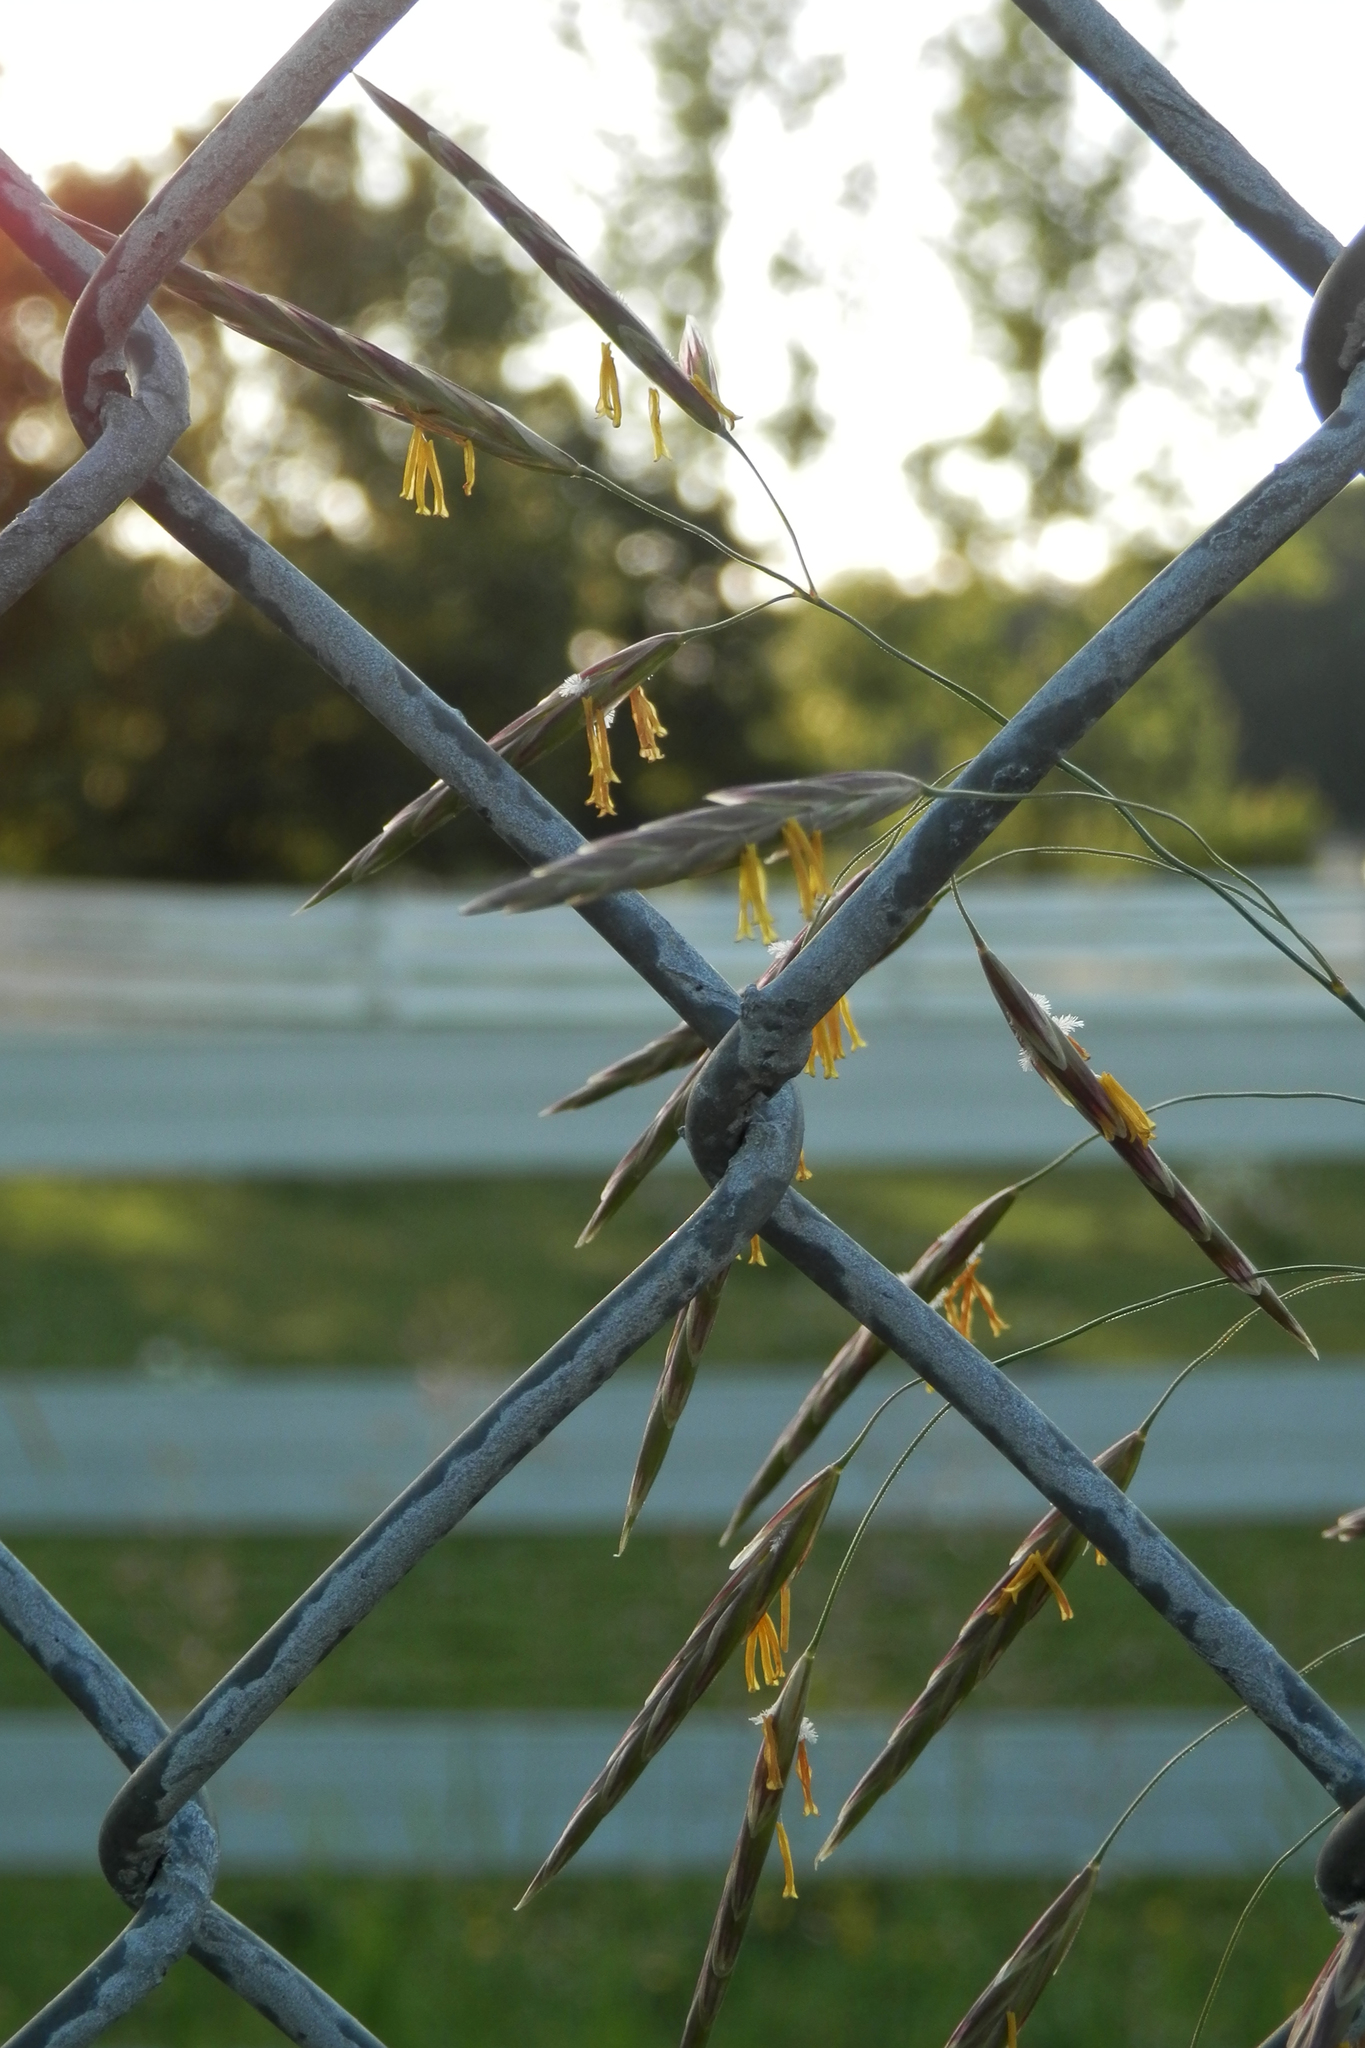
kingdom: Plantae
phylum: Tracheophyta
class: Liliopsida
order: Poales
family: Poaceae
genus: Bromus
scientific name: Bromus inermis
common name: Smooth brome
